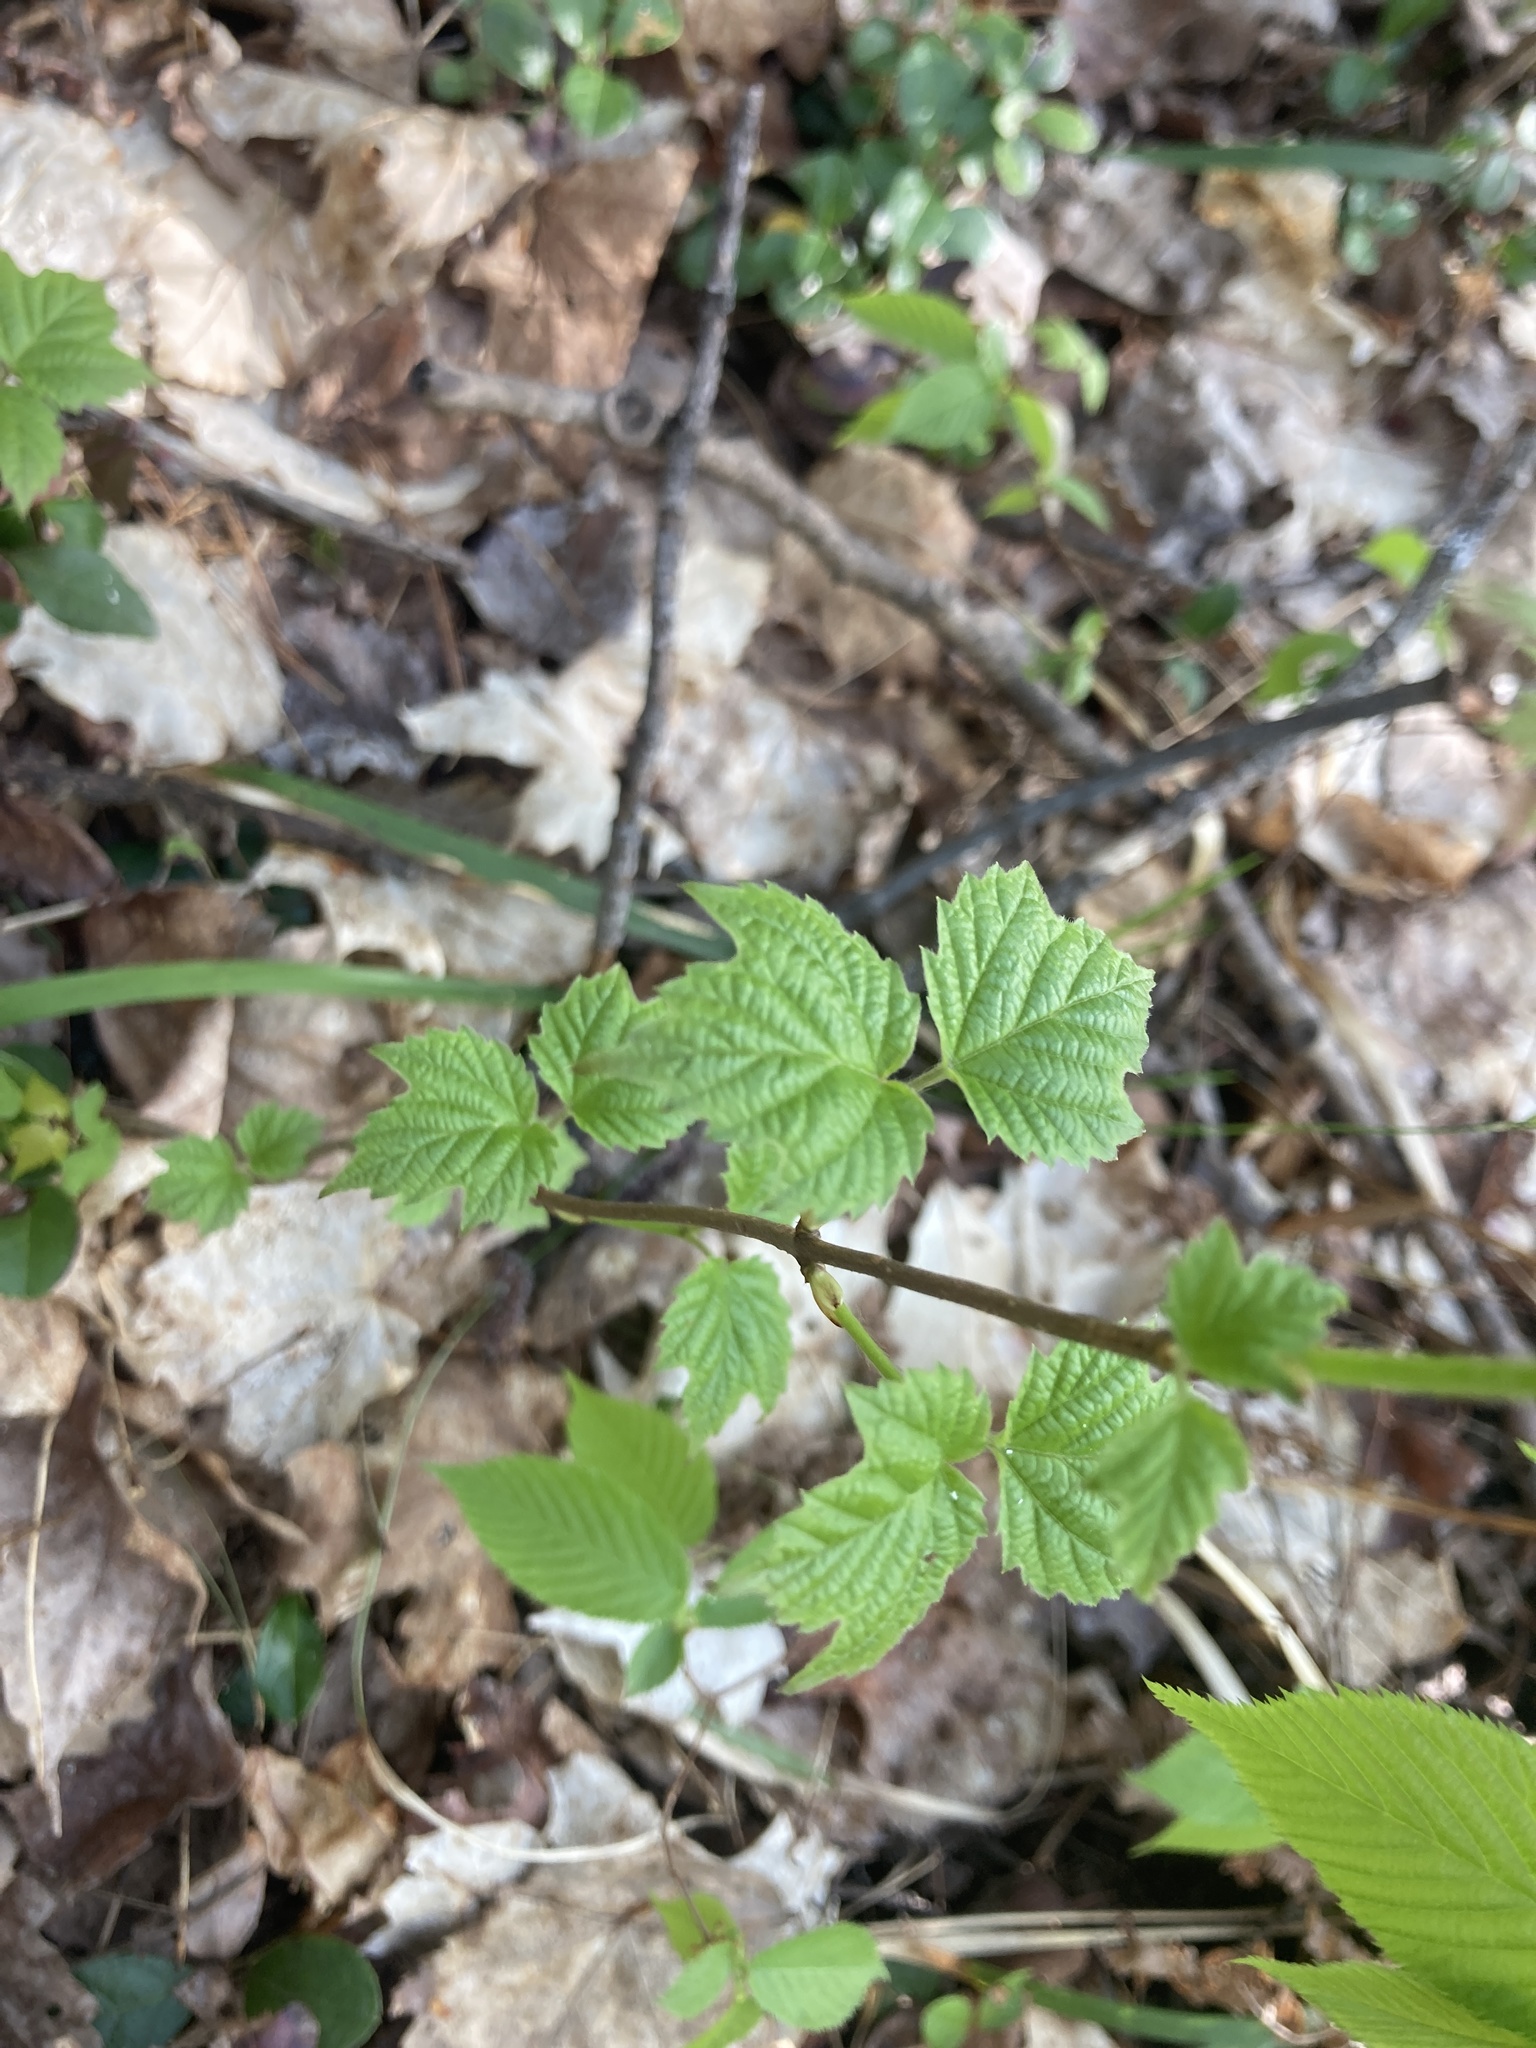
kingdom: Plantae
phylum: Tracheophyta
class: Magnoliopsida
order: Dipsacales
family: Viburnaceae
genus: Viburnum
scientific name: Viburnum acerifolium
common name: Dockmackie
